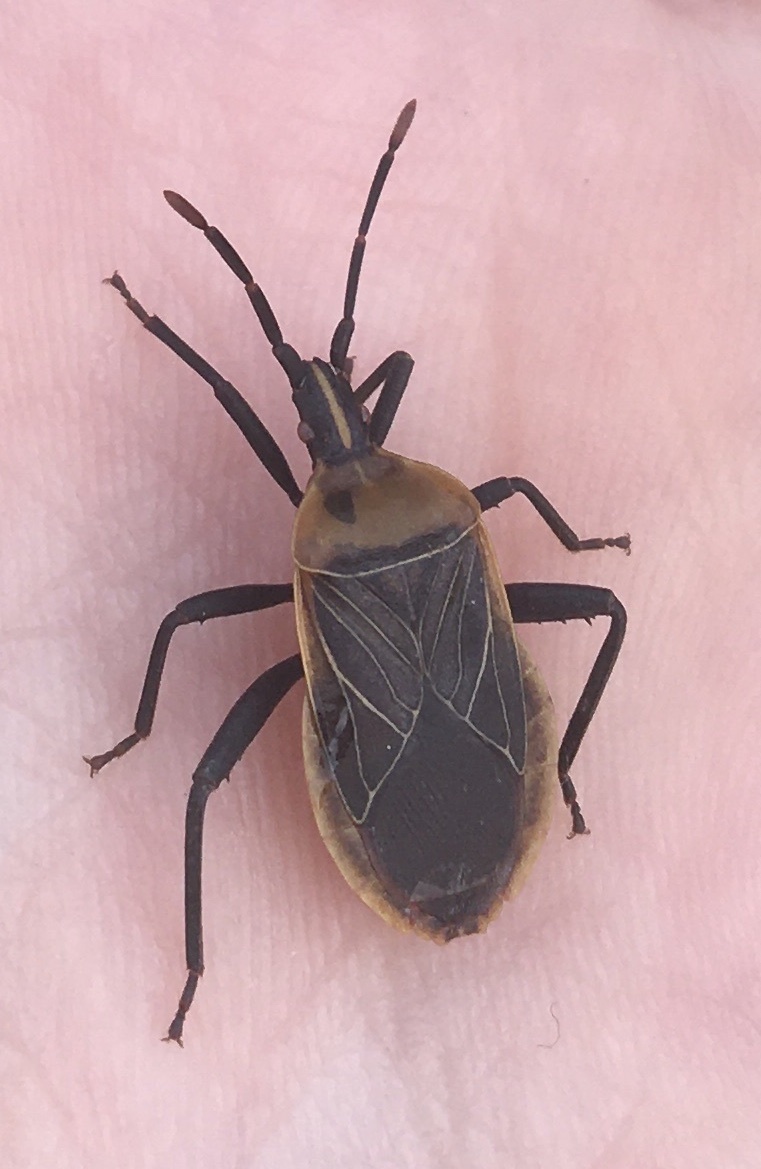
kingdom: Animalia
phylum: Arthropoda
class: Insecta
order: Hemiptera
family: Coreidae
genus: Chelinidea
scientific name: Chelinidea vittiger
